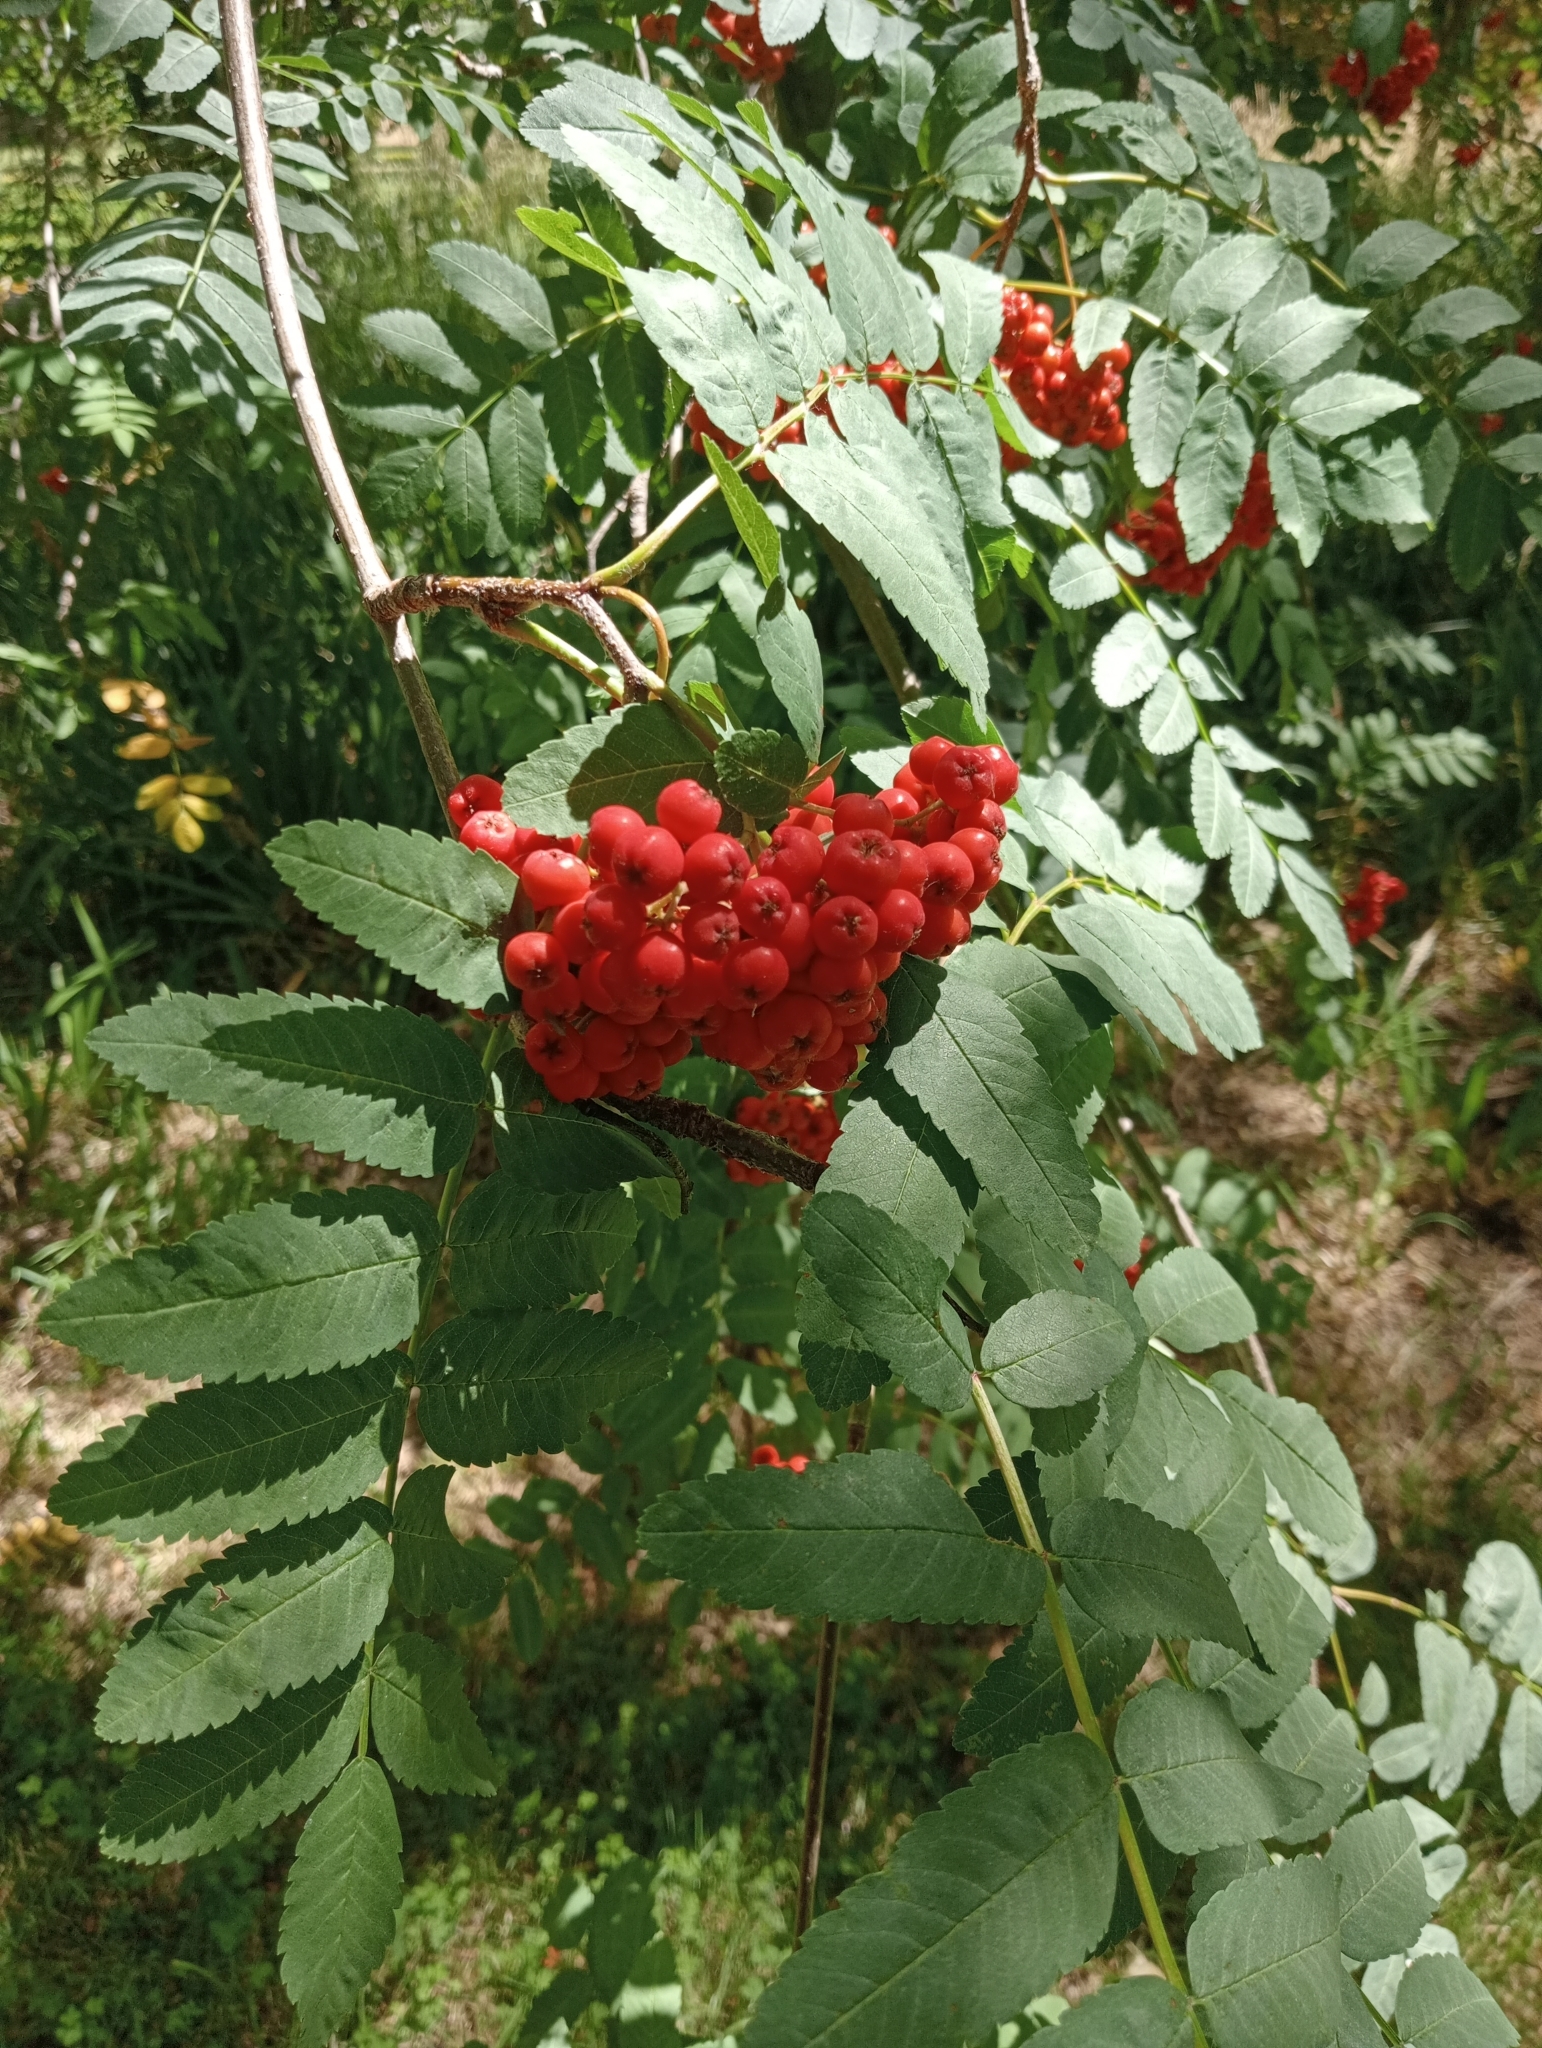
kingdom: Plantae
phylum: Tracheophyta
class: Magnoliopsida
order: Rosales
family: Rosaceae
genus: Sorbus
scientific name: Sorbus aucuparia
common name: Rowan
